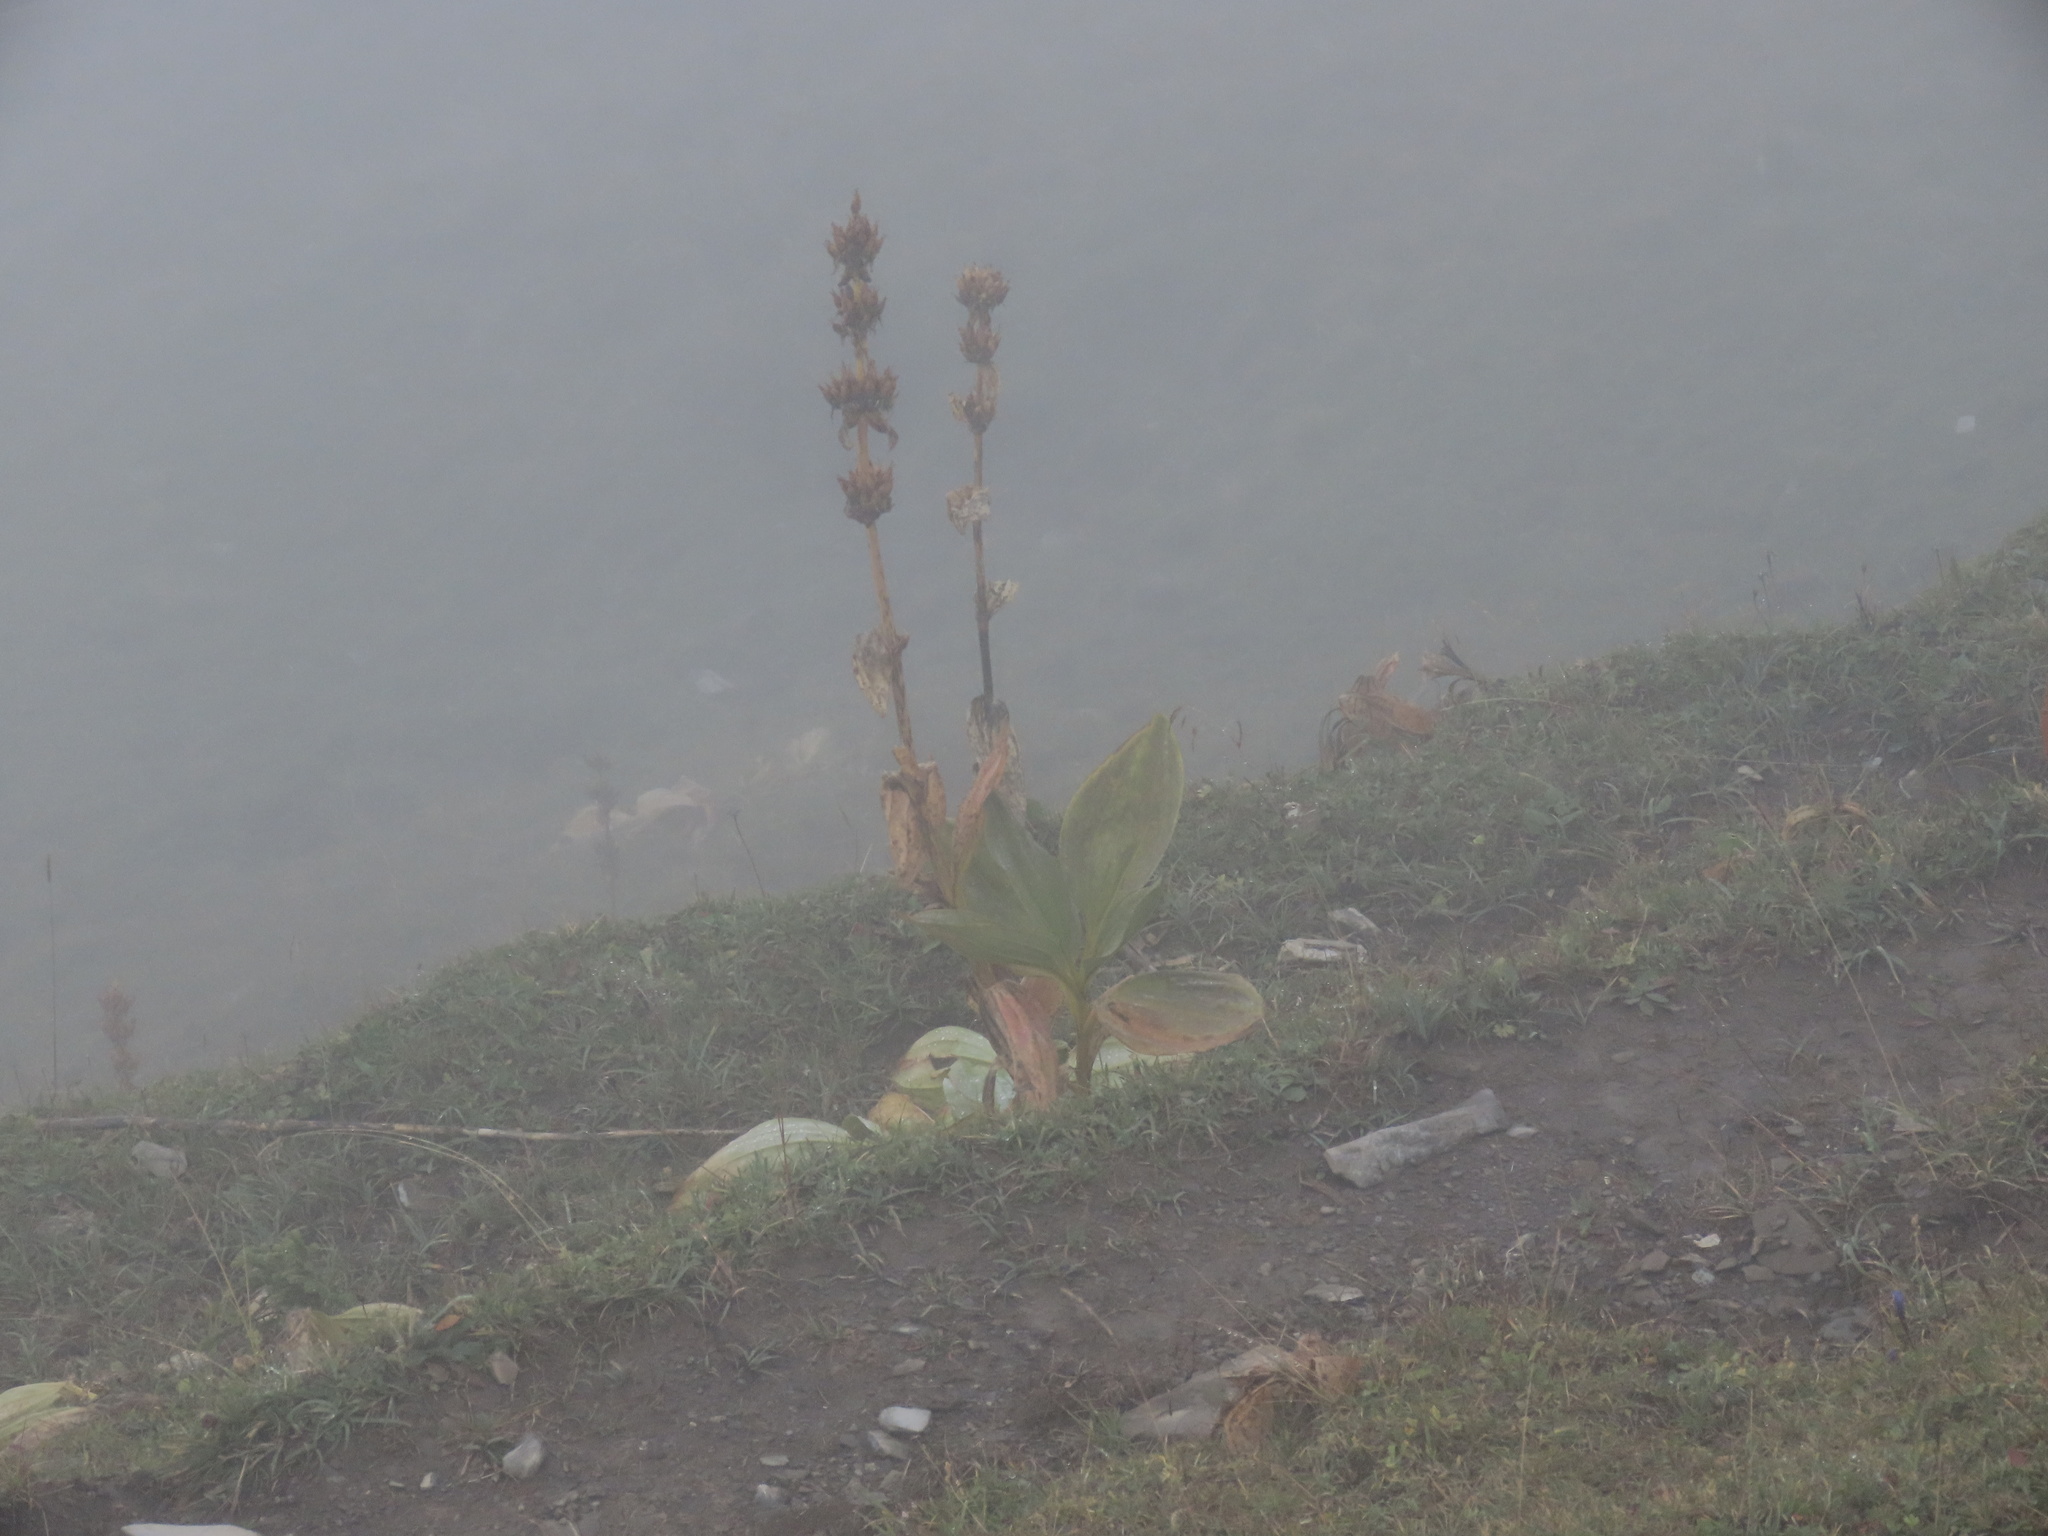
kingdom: Plantae
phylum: Tracheophyta
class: Magnoliopsida
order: Gentianales
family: Gentianaceae
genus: Gentiana
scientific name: Gentiana lutea
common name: Great yellow gentian
